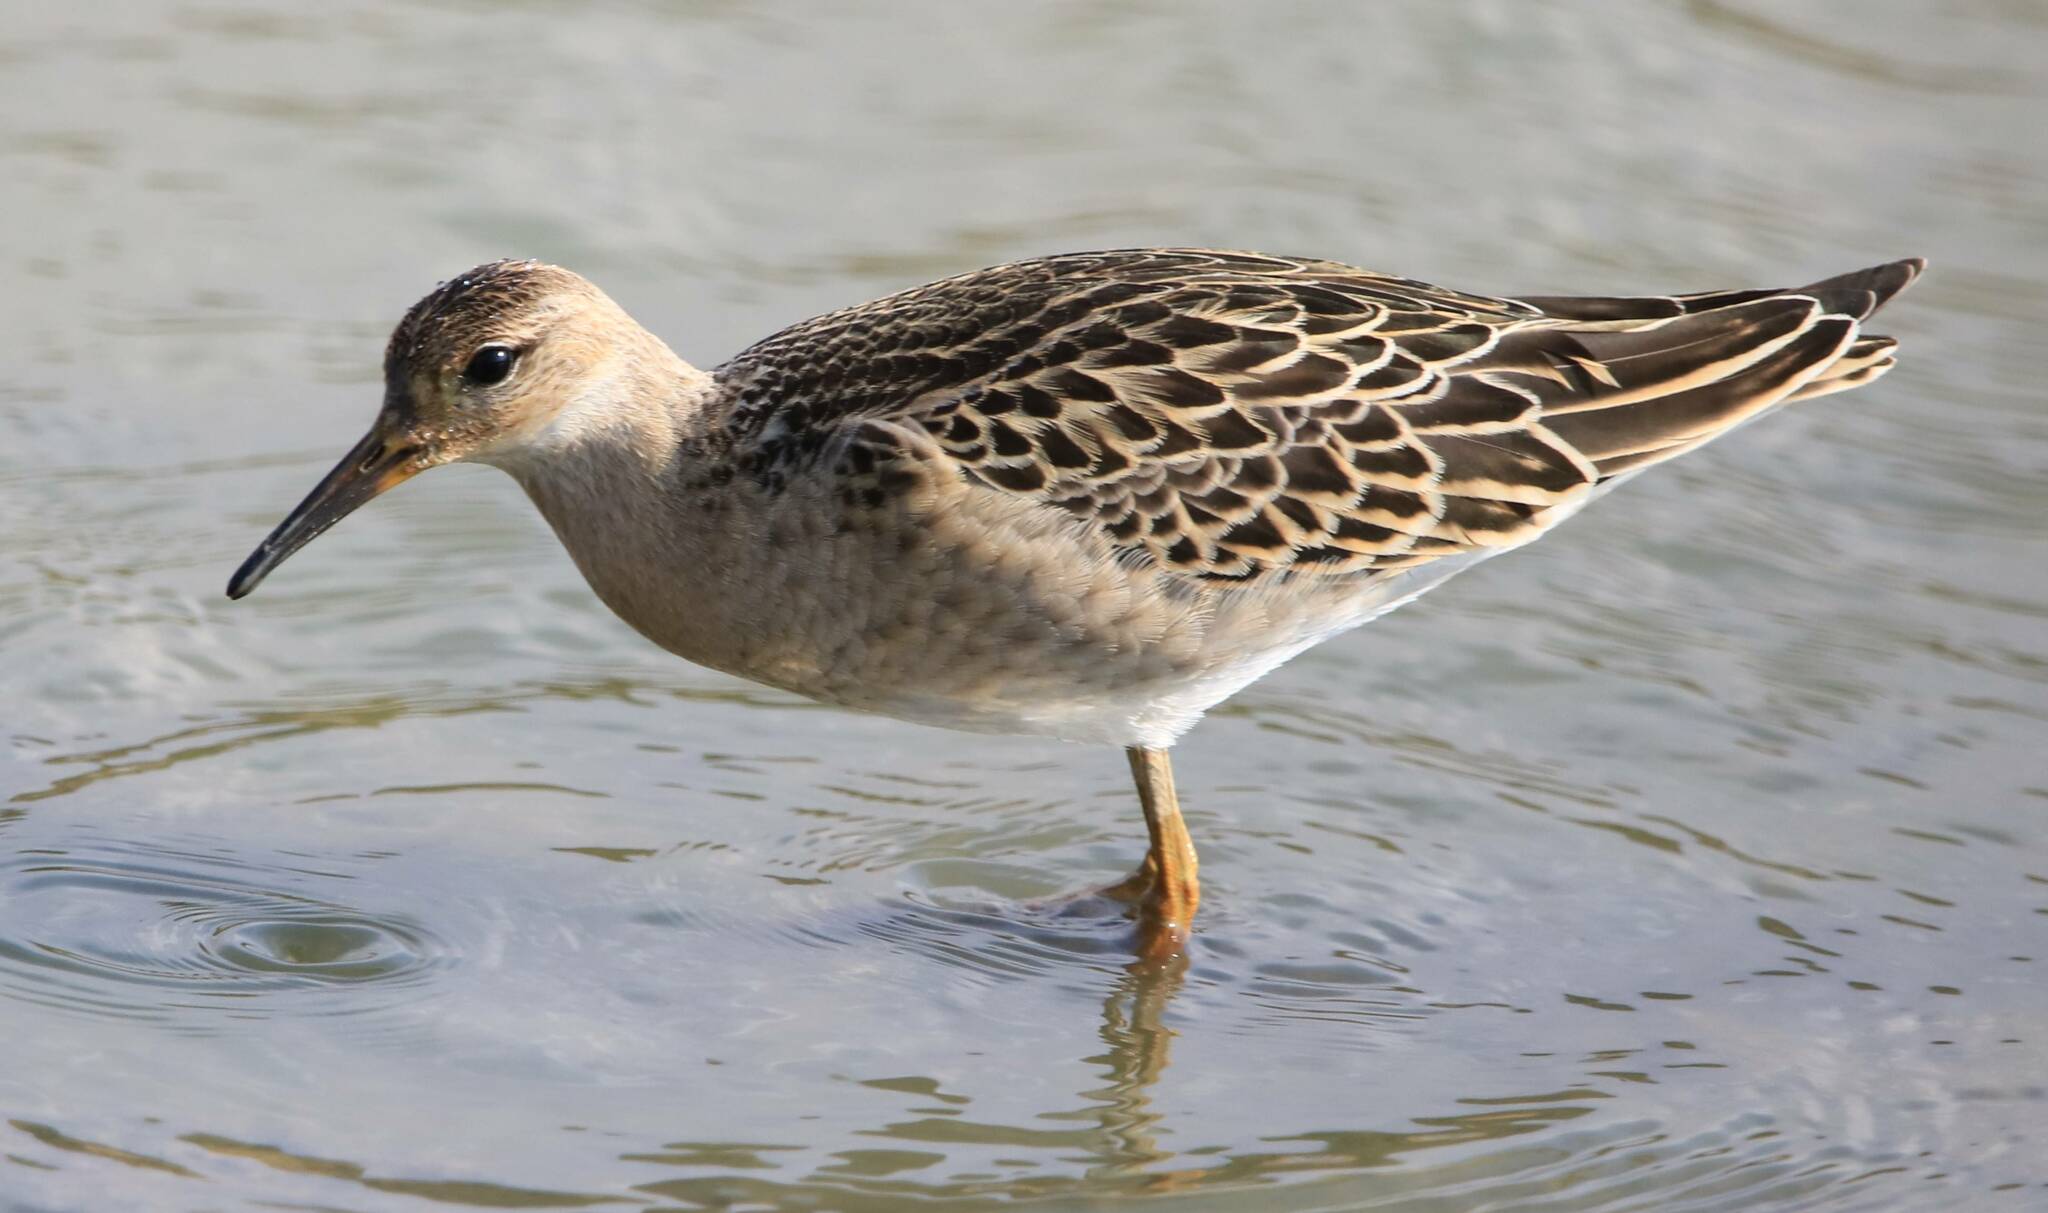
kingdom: Animalia
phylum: Chordata
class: Aves
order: Charadriiformes
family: Scolopacidae
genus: Calidris
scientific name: Calidris pugnax
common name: Ruff
